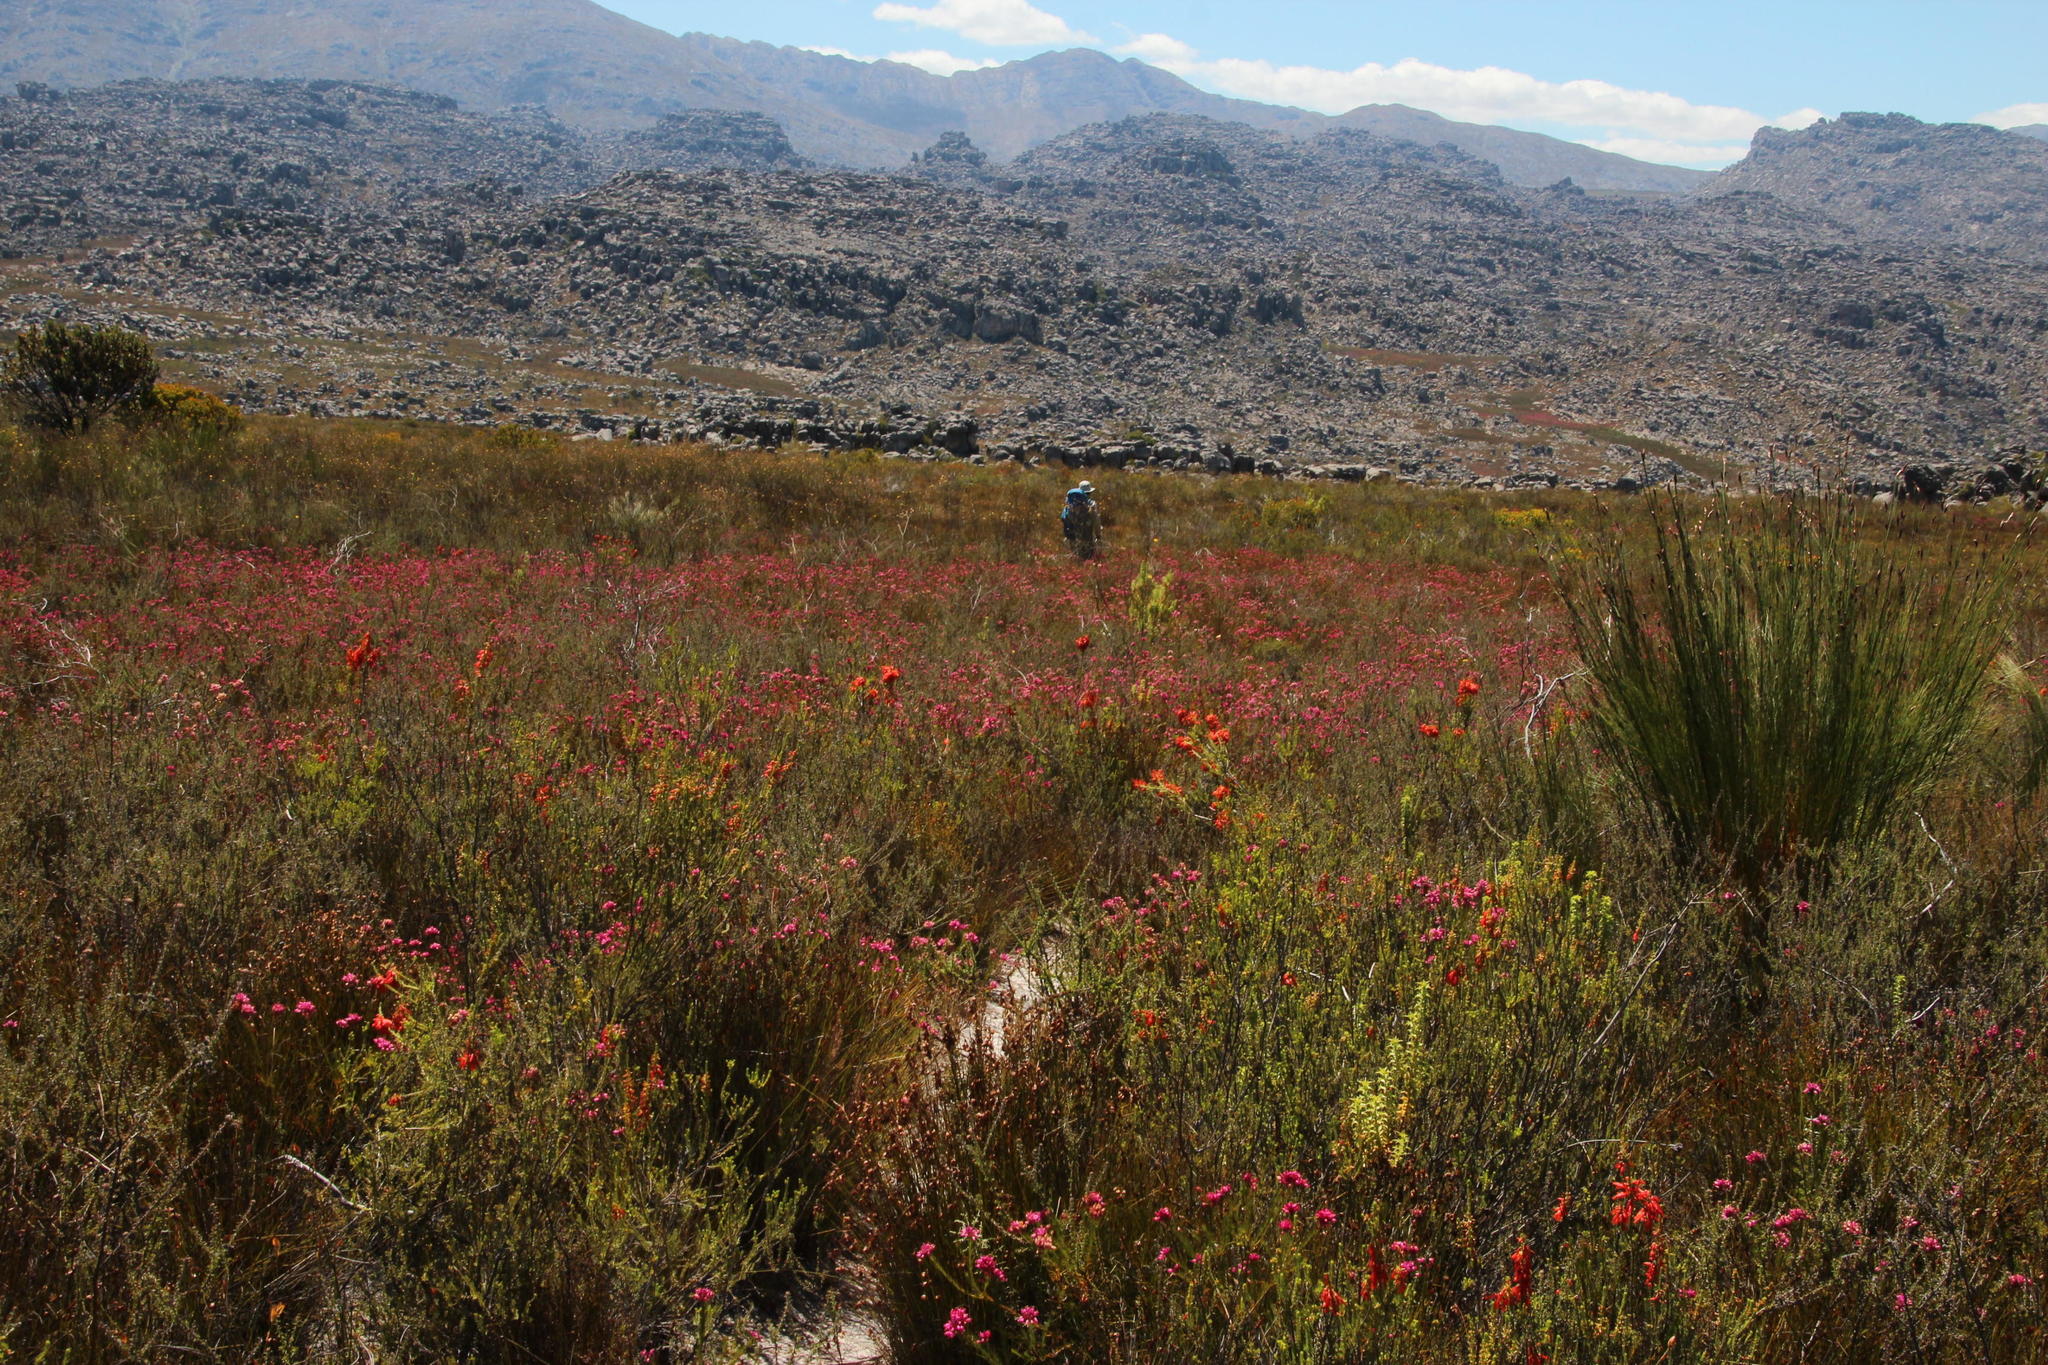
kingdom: Plantae
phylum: Tracheophyta
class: Magnoliopsida
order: Ericales
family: Ericaceae
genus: Erica
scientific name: Erica mammosa
